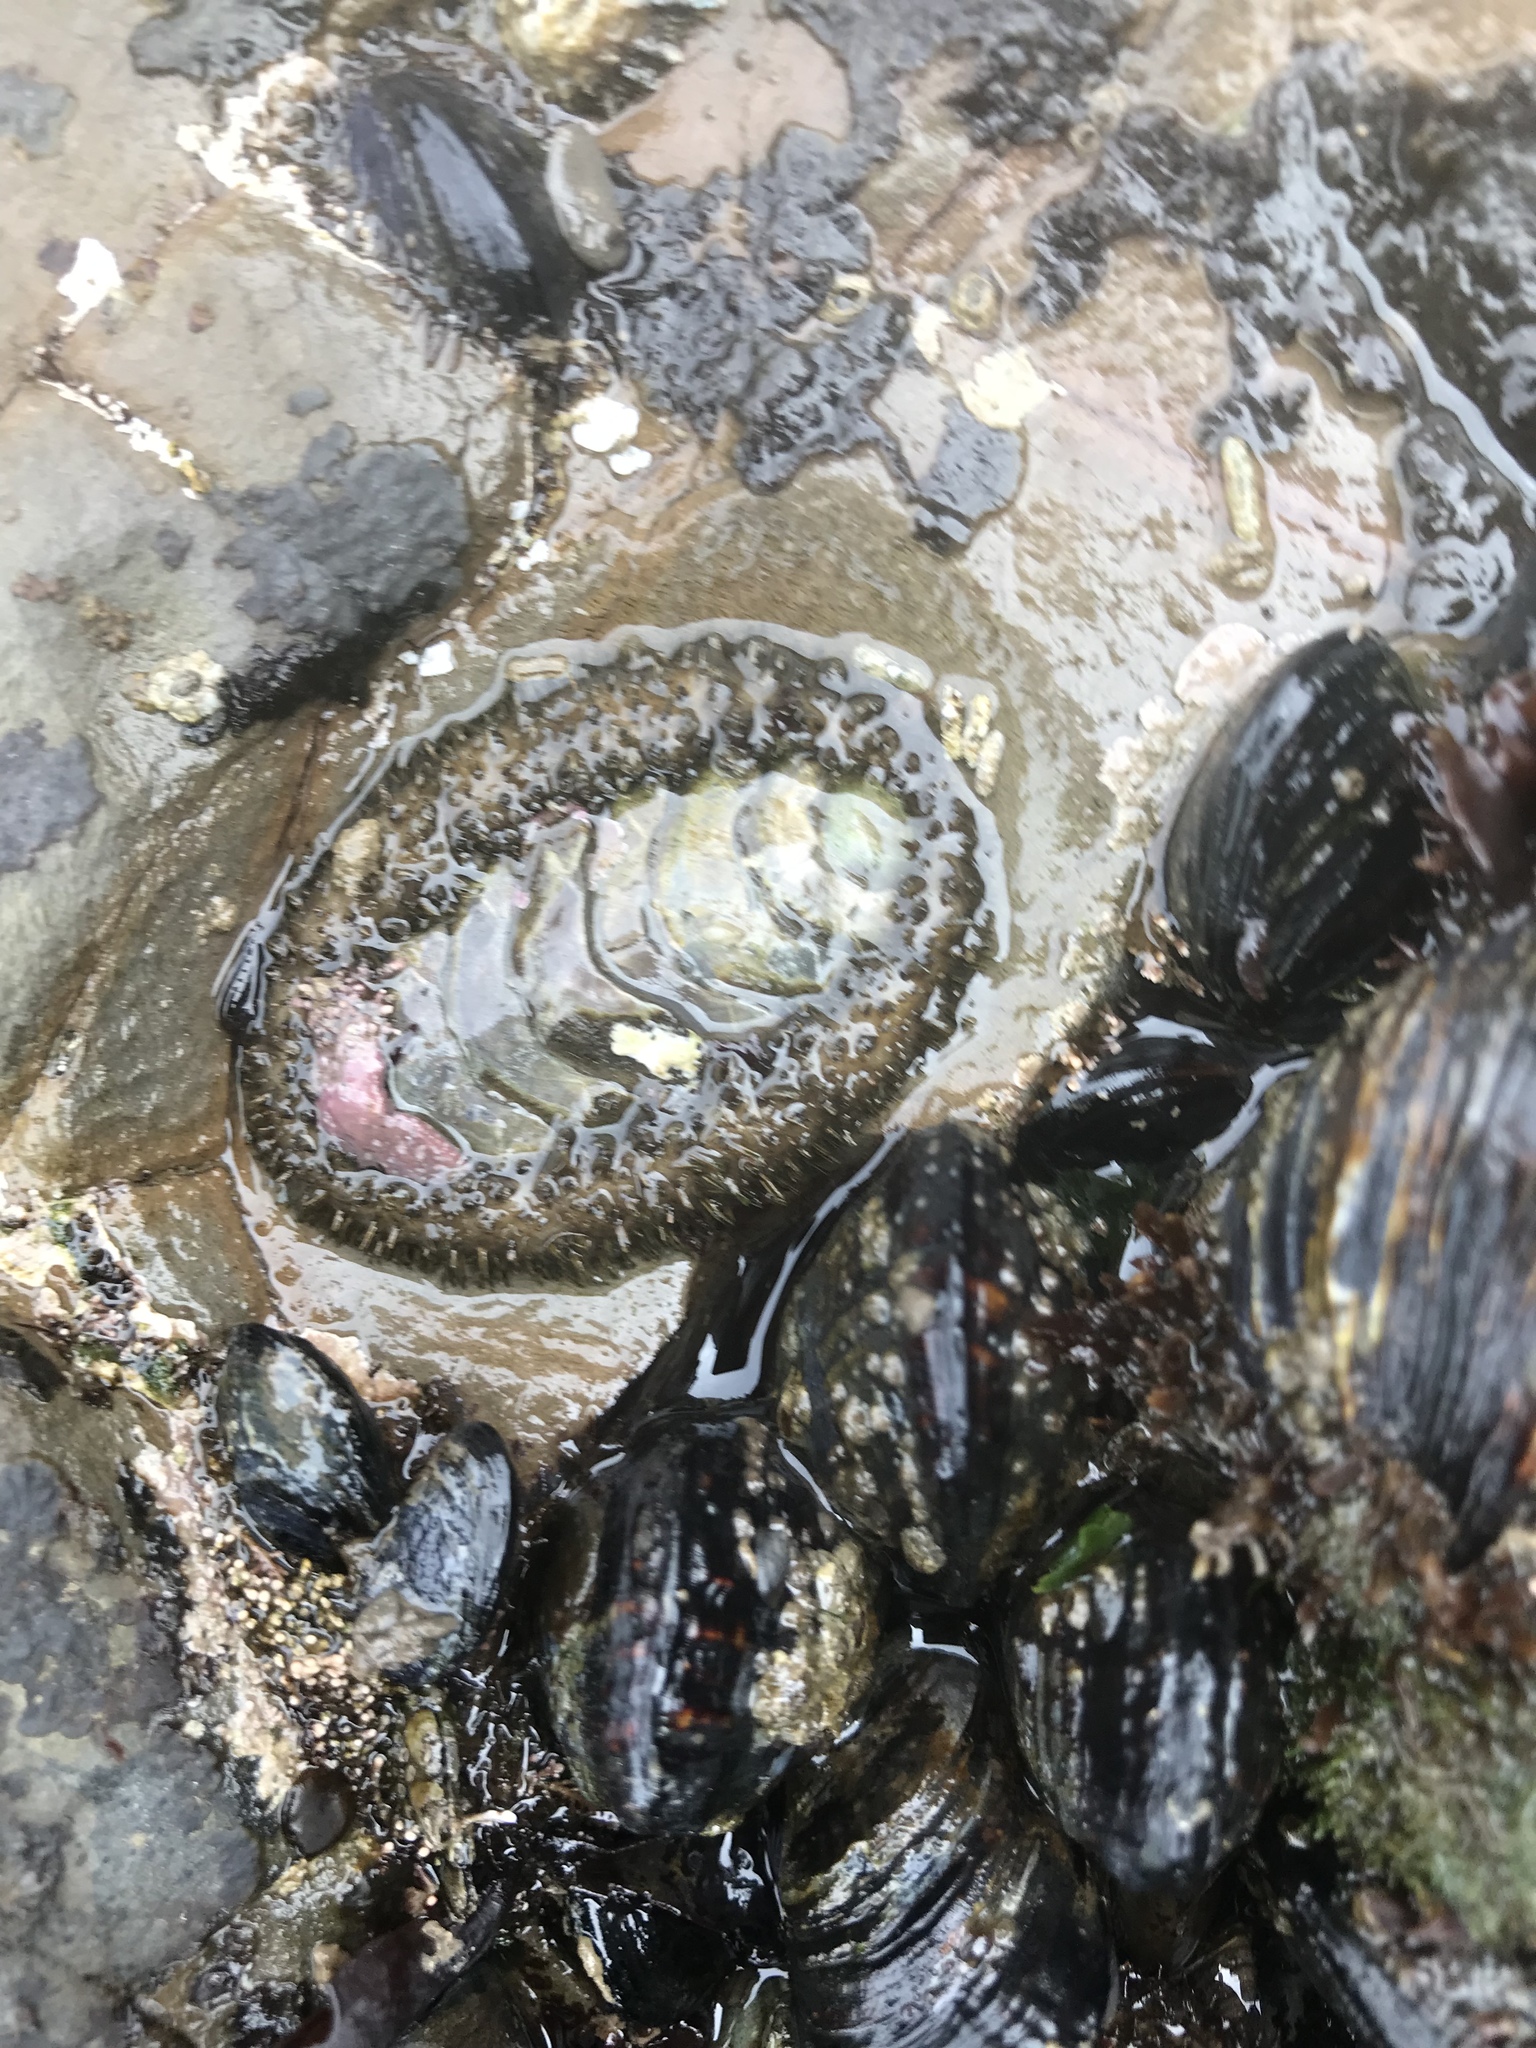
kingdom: Animalia
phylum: Mollusca
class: Polyplacophora
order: Chitonida
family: Mopaliidae
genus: Mopalia
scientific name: Mopalia muscosa
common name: Mossy chiton
